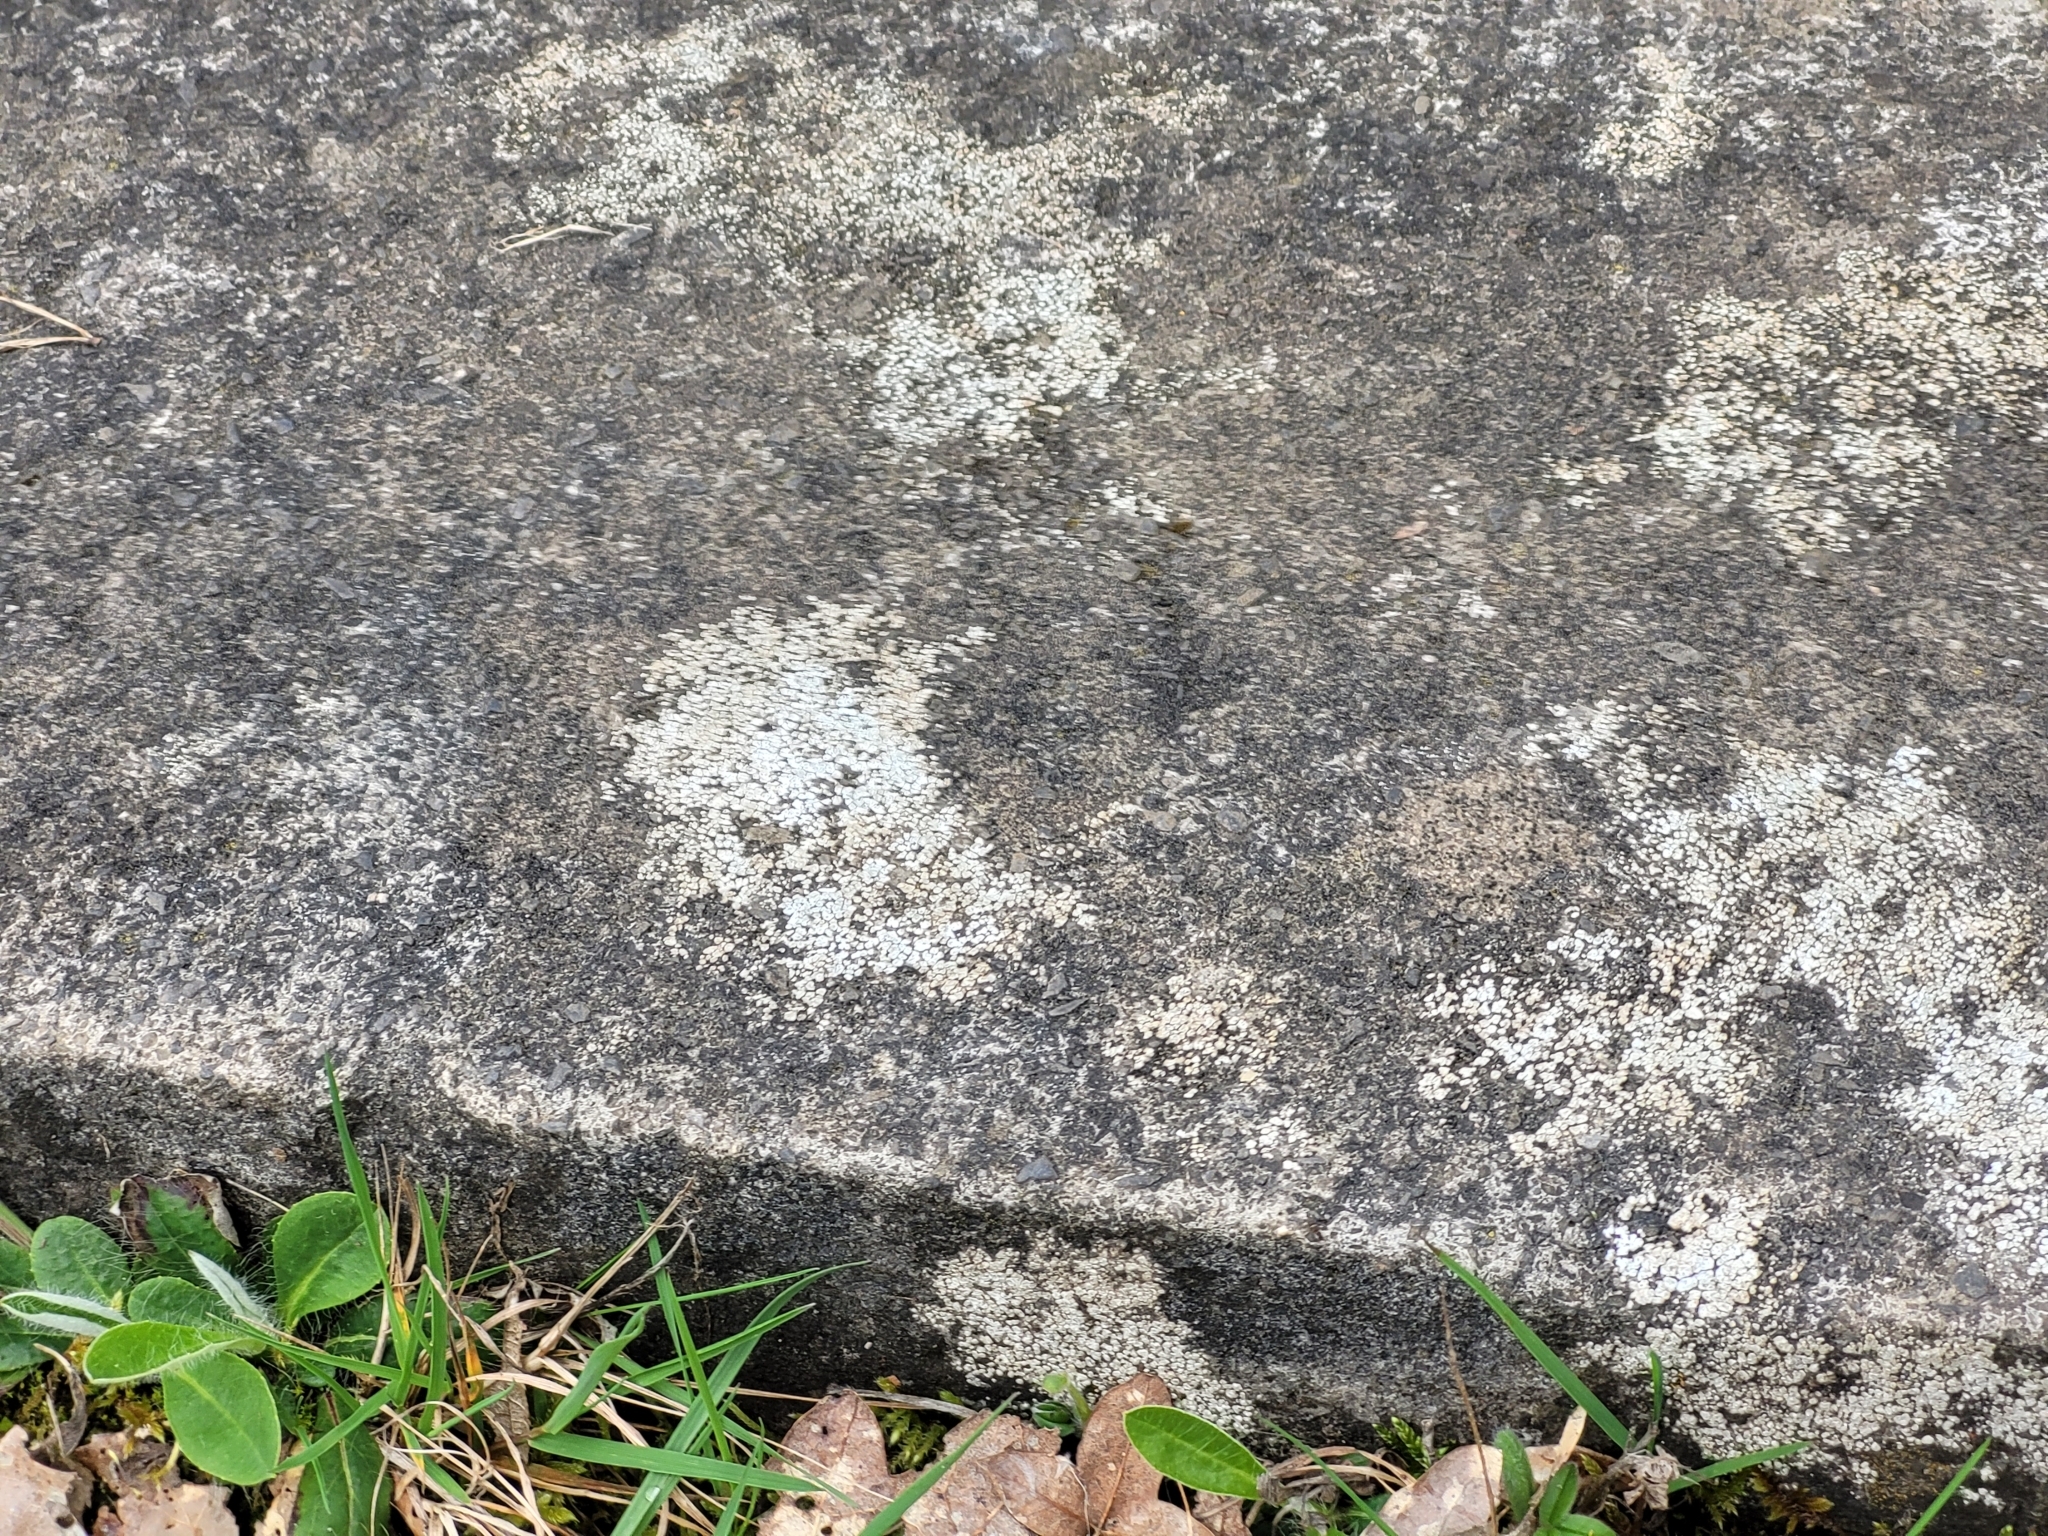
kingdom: Fungi
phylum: Ascomycota
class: Lecanoromycetes
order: Pertusariales
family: Megasporaceae
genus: Circinaria
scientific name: Circinaria contorta
